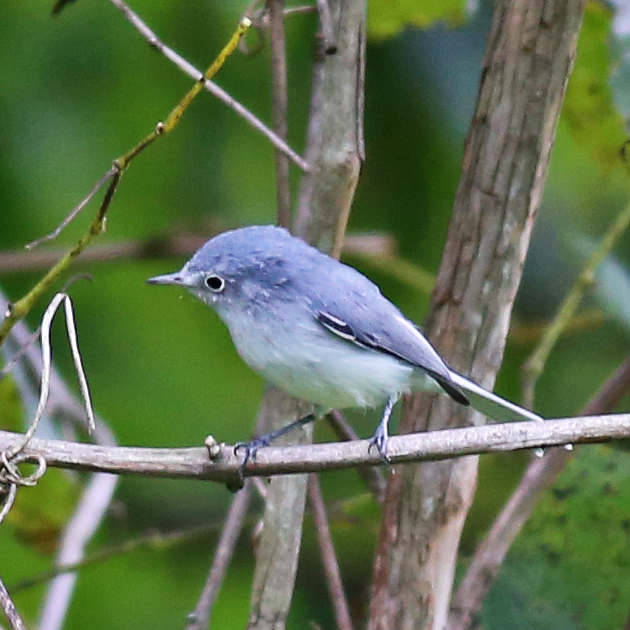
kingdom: Animalia
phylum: Chordata
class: Aves
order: Passeriformes
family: Polioptilidae
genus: Polioptila
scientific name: Polioptila caerulea
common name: Blue-gray gnatcatcher
